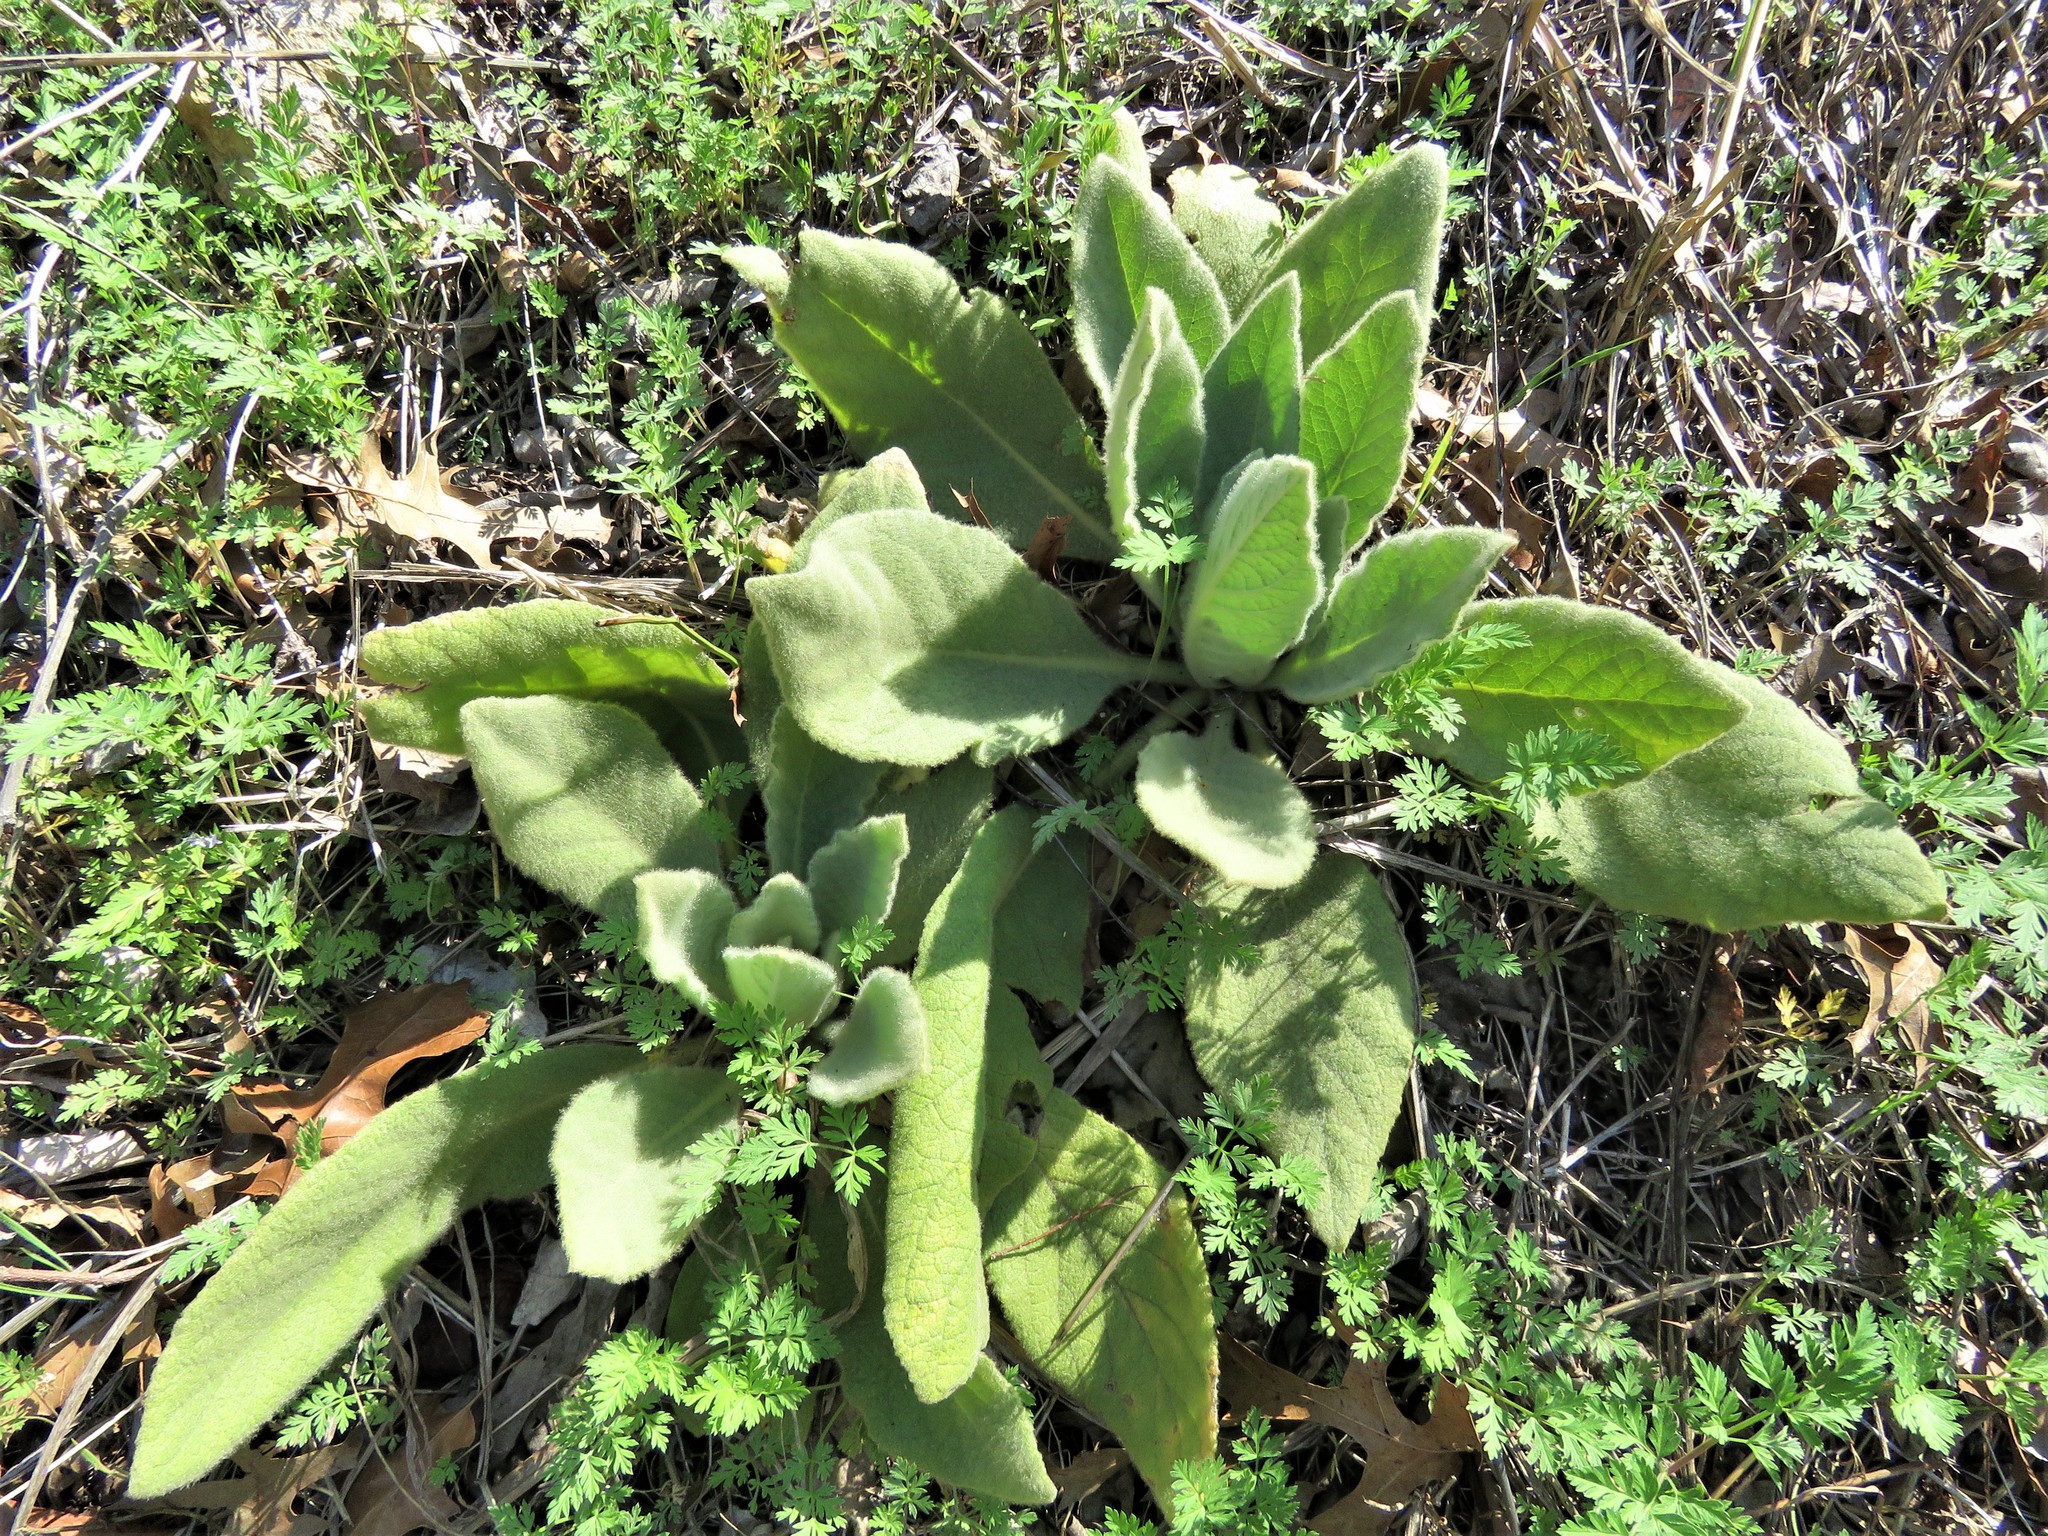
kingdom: Plantae
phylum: Tracheophyta
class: Magnoliopsida
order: Lamiales
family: Scrophulariaceae
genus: Verbascum
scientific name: Verbascum thapsus
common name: Common mullein
